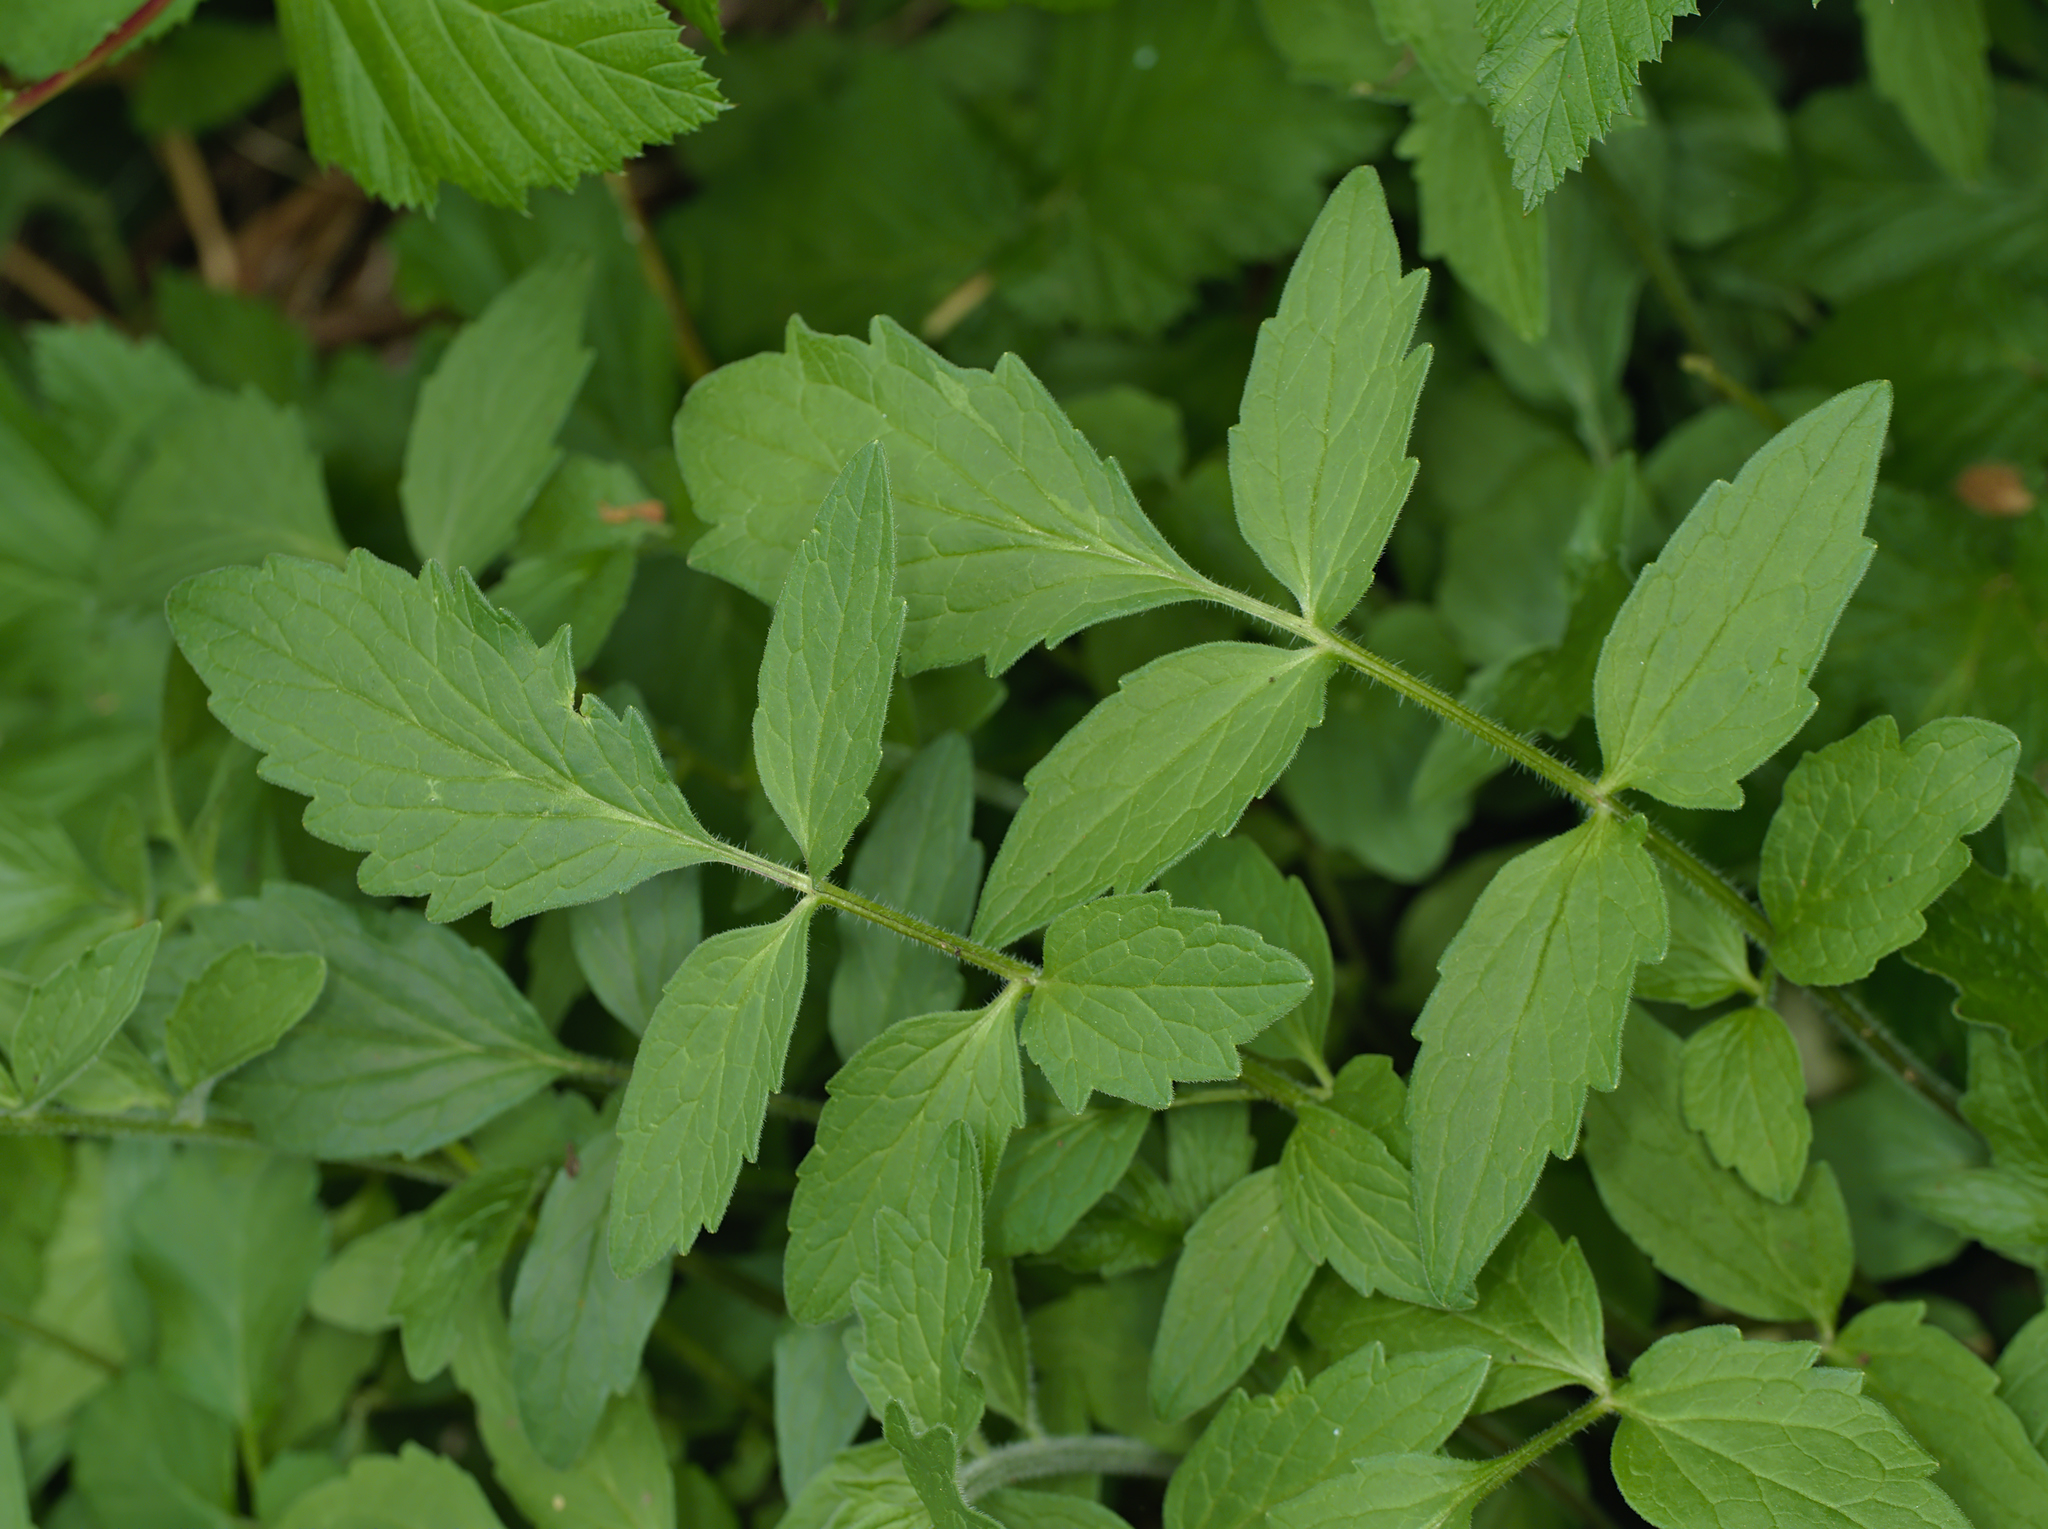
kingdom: Plantae
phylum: Tracheophyta
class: Magnoliopsida
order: Dipsacales
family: Caprifoliaceae
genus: Valeriana
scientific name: Valeriana officinalis
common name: Common valerian
